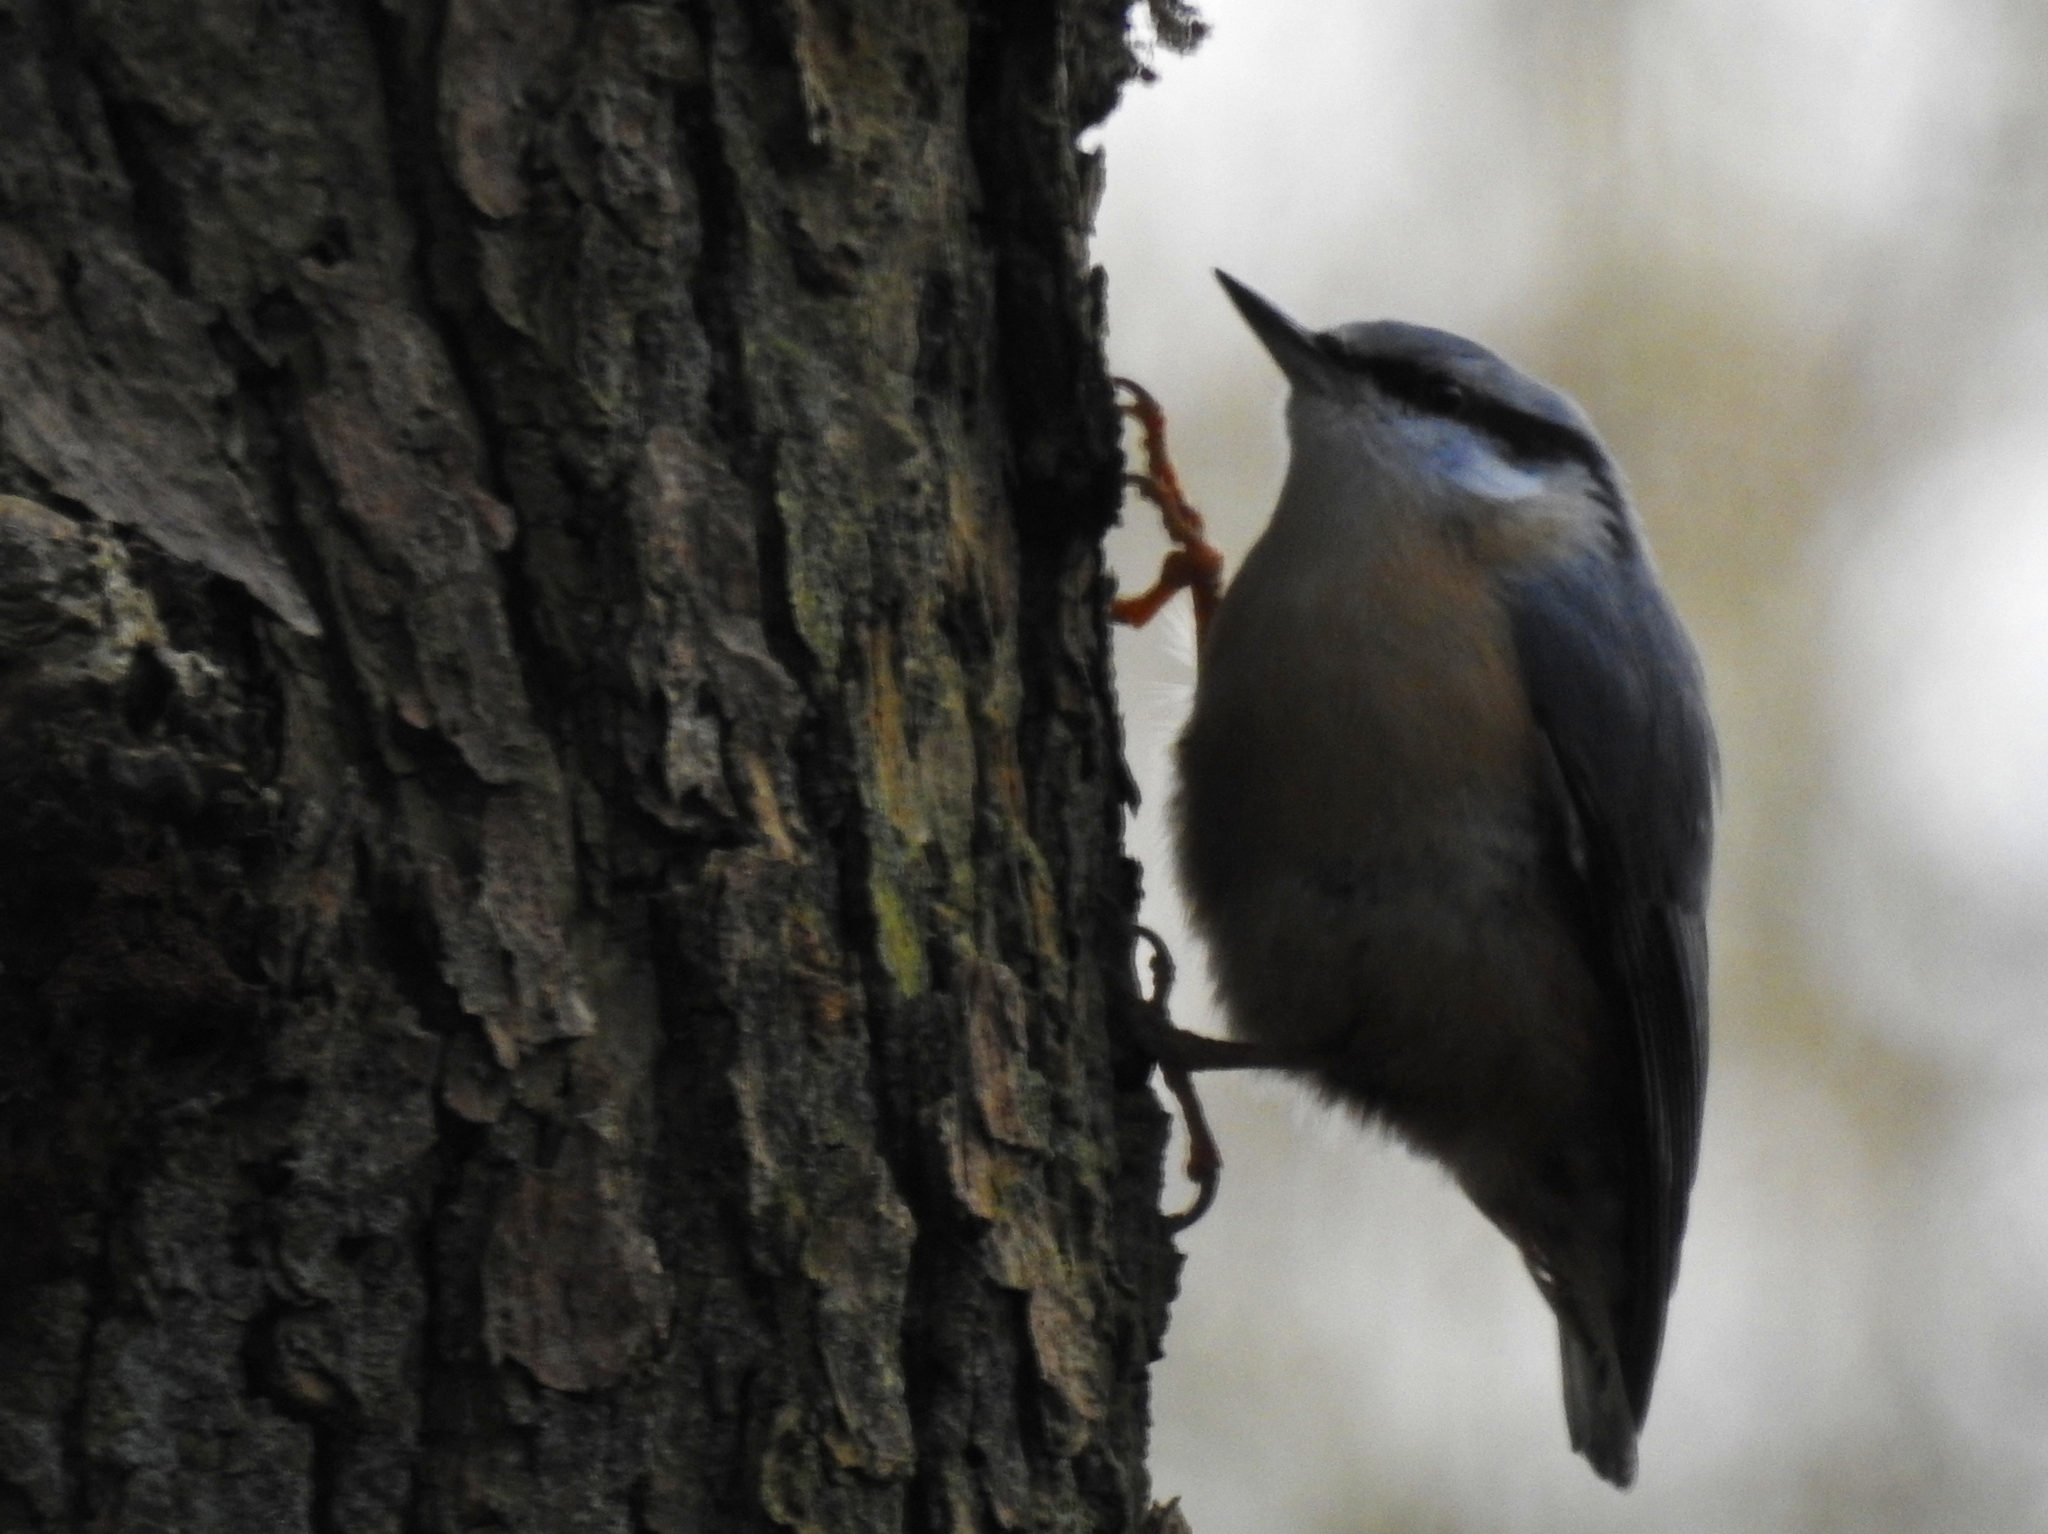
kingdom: Animalia
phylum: Chordata
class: Aves
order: Passeriformes
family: Sittidae
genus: Sitta
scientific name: Sitta europaea
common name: Eurasian nuthatch
